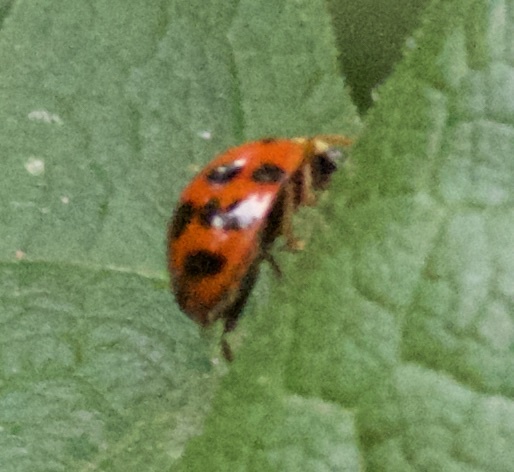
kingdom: Animalia
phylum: Arthropoda
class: Insecta
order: Coleoptera
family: Coccinellidae
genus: Harmonia
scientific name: Harmonia axyridis
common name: Harlequin ladybird
